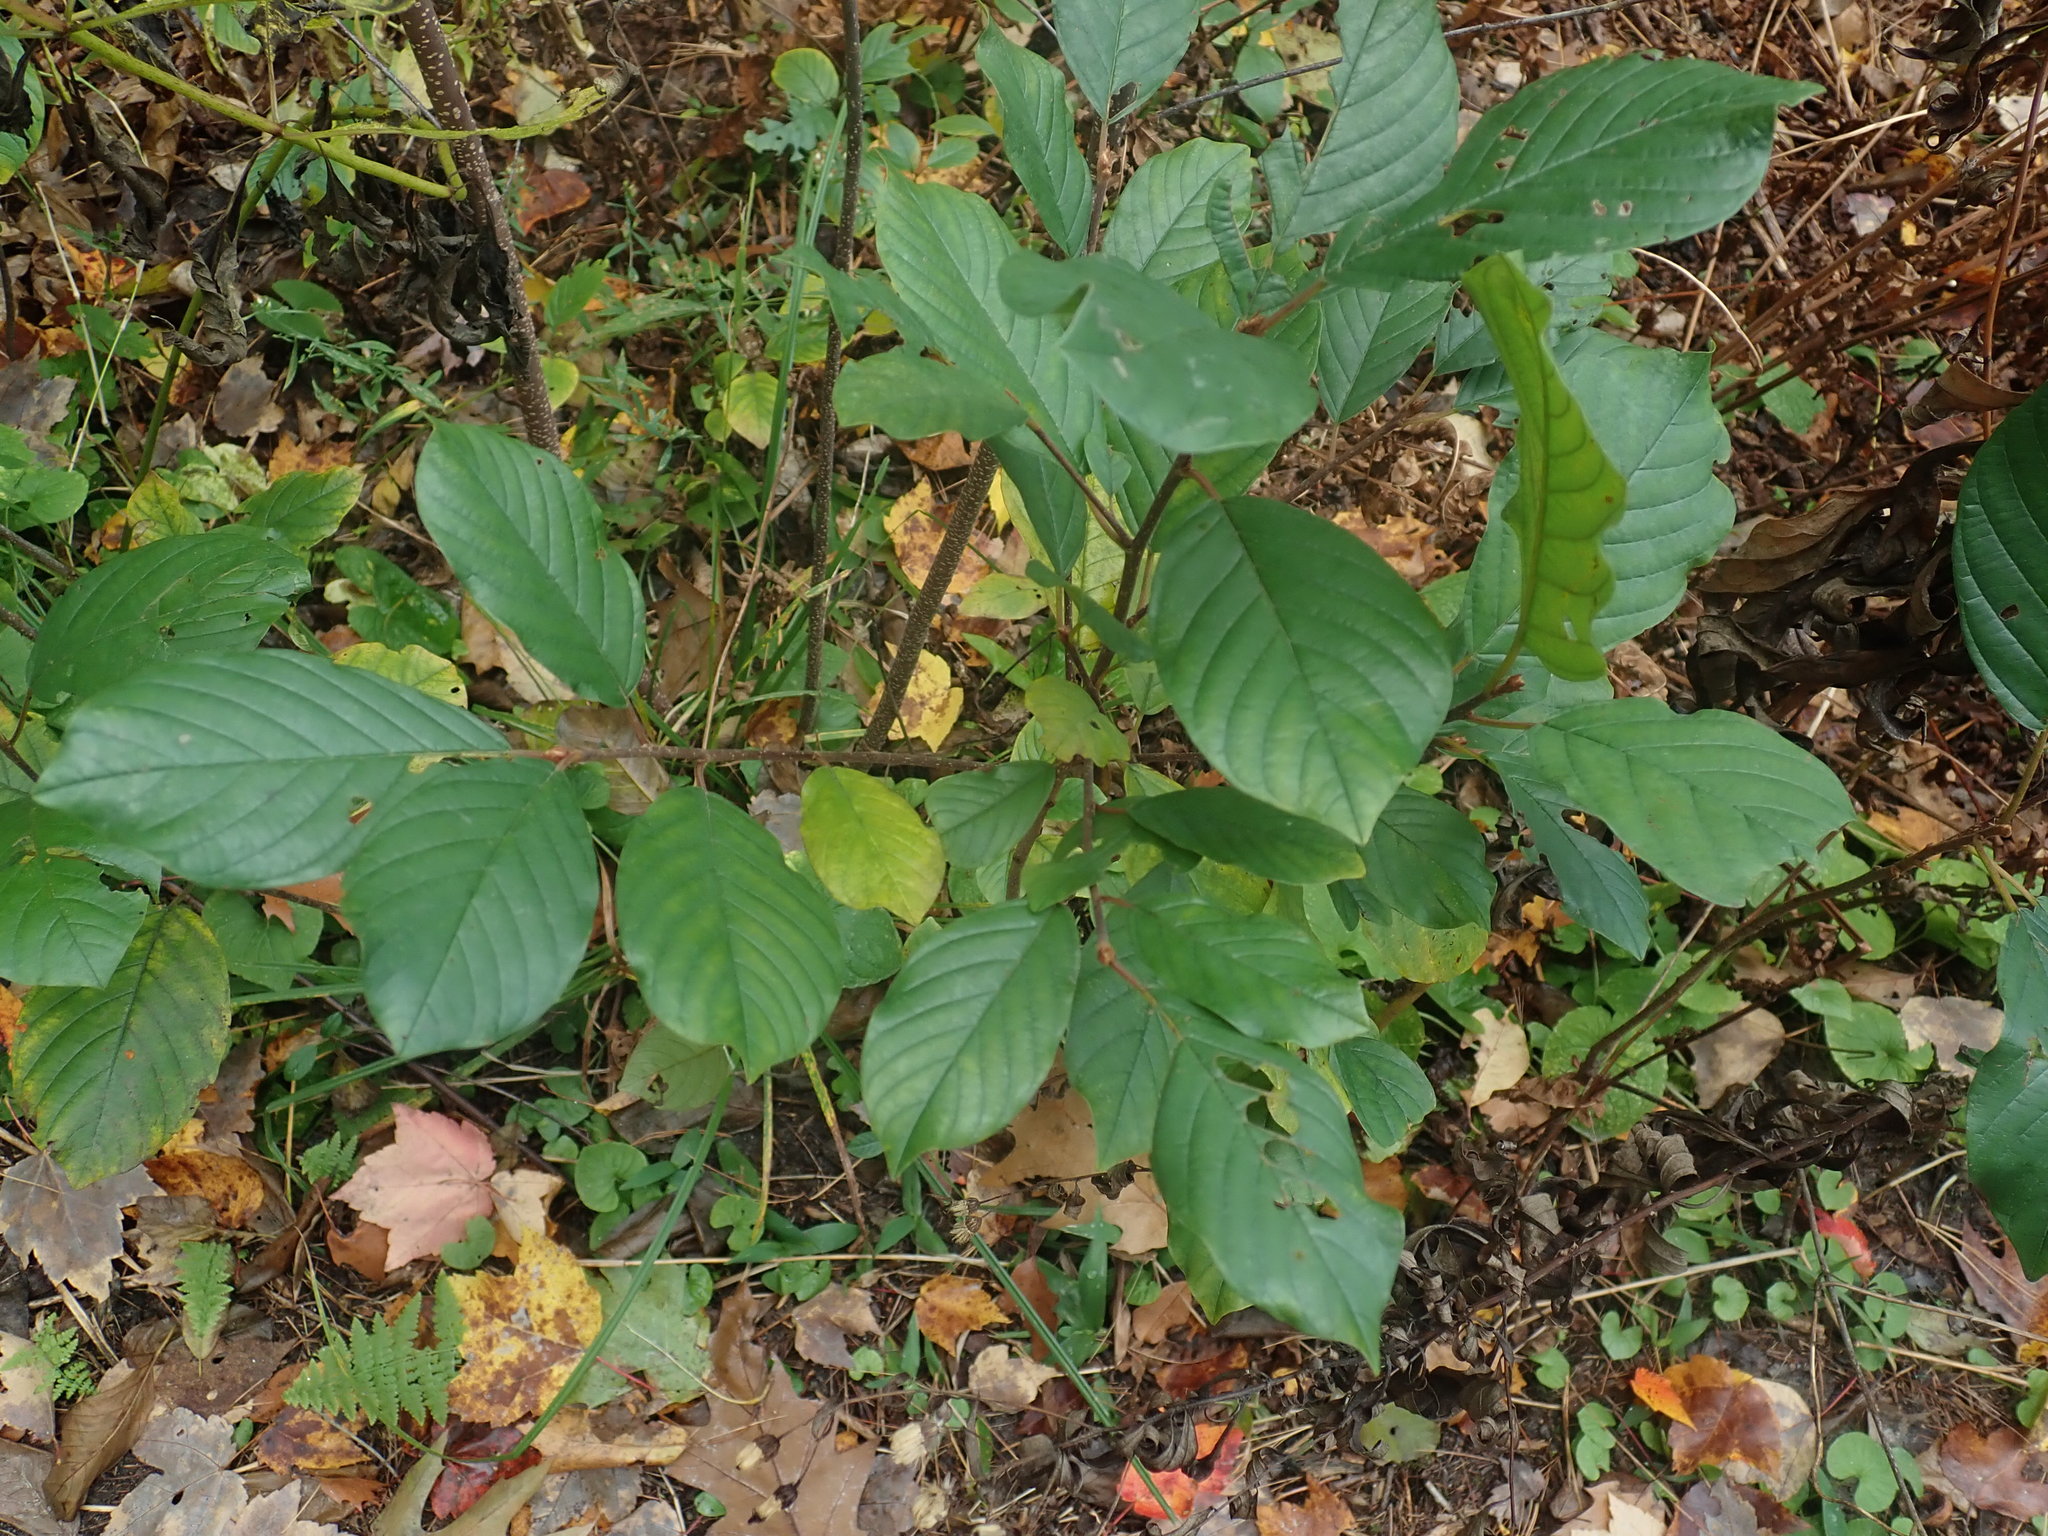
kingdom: Plantae
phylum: Tracheophyta
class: Magnoliopsida
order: Rosales
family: Rhamnaceae
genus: Frangula
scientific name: Frangula alnus
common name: Alder buckthorn
